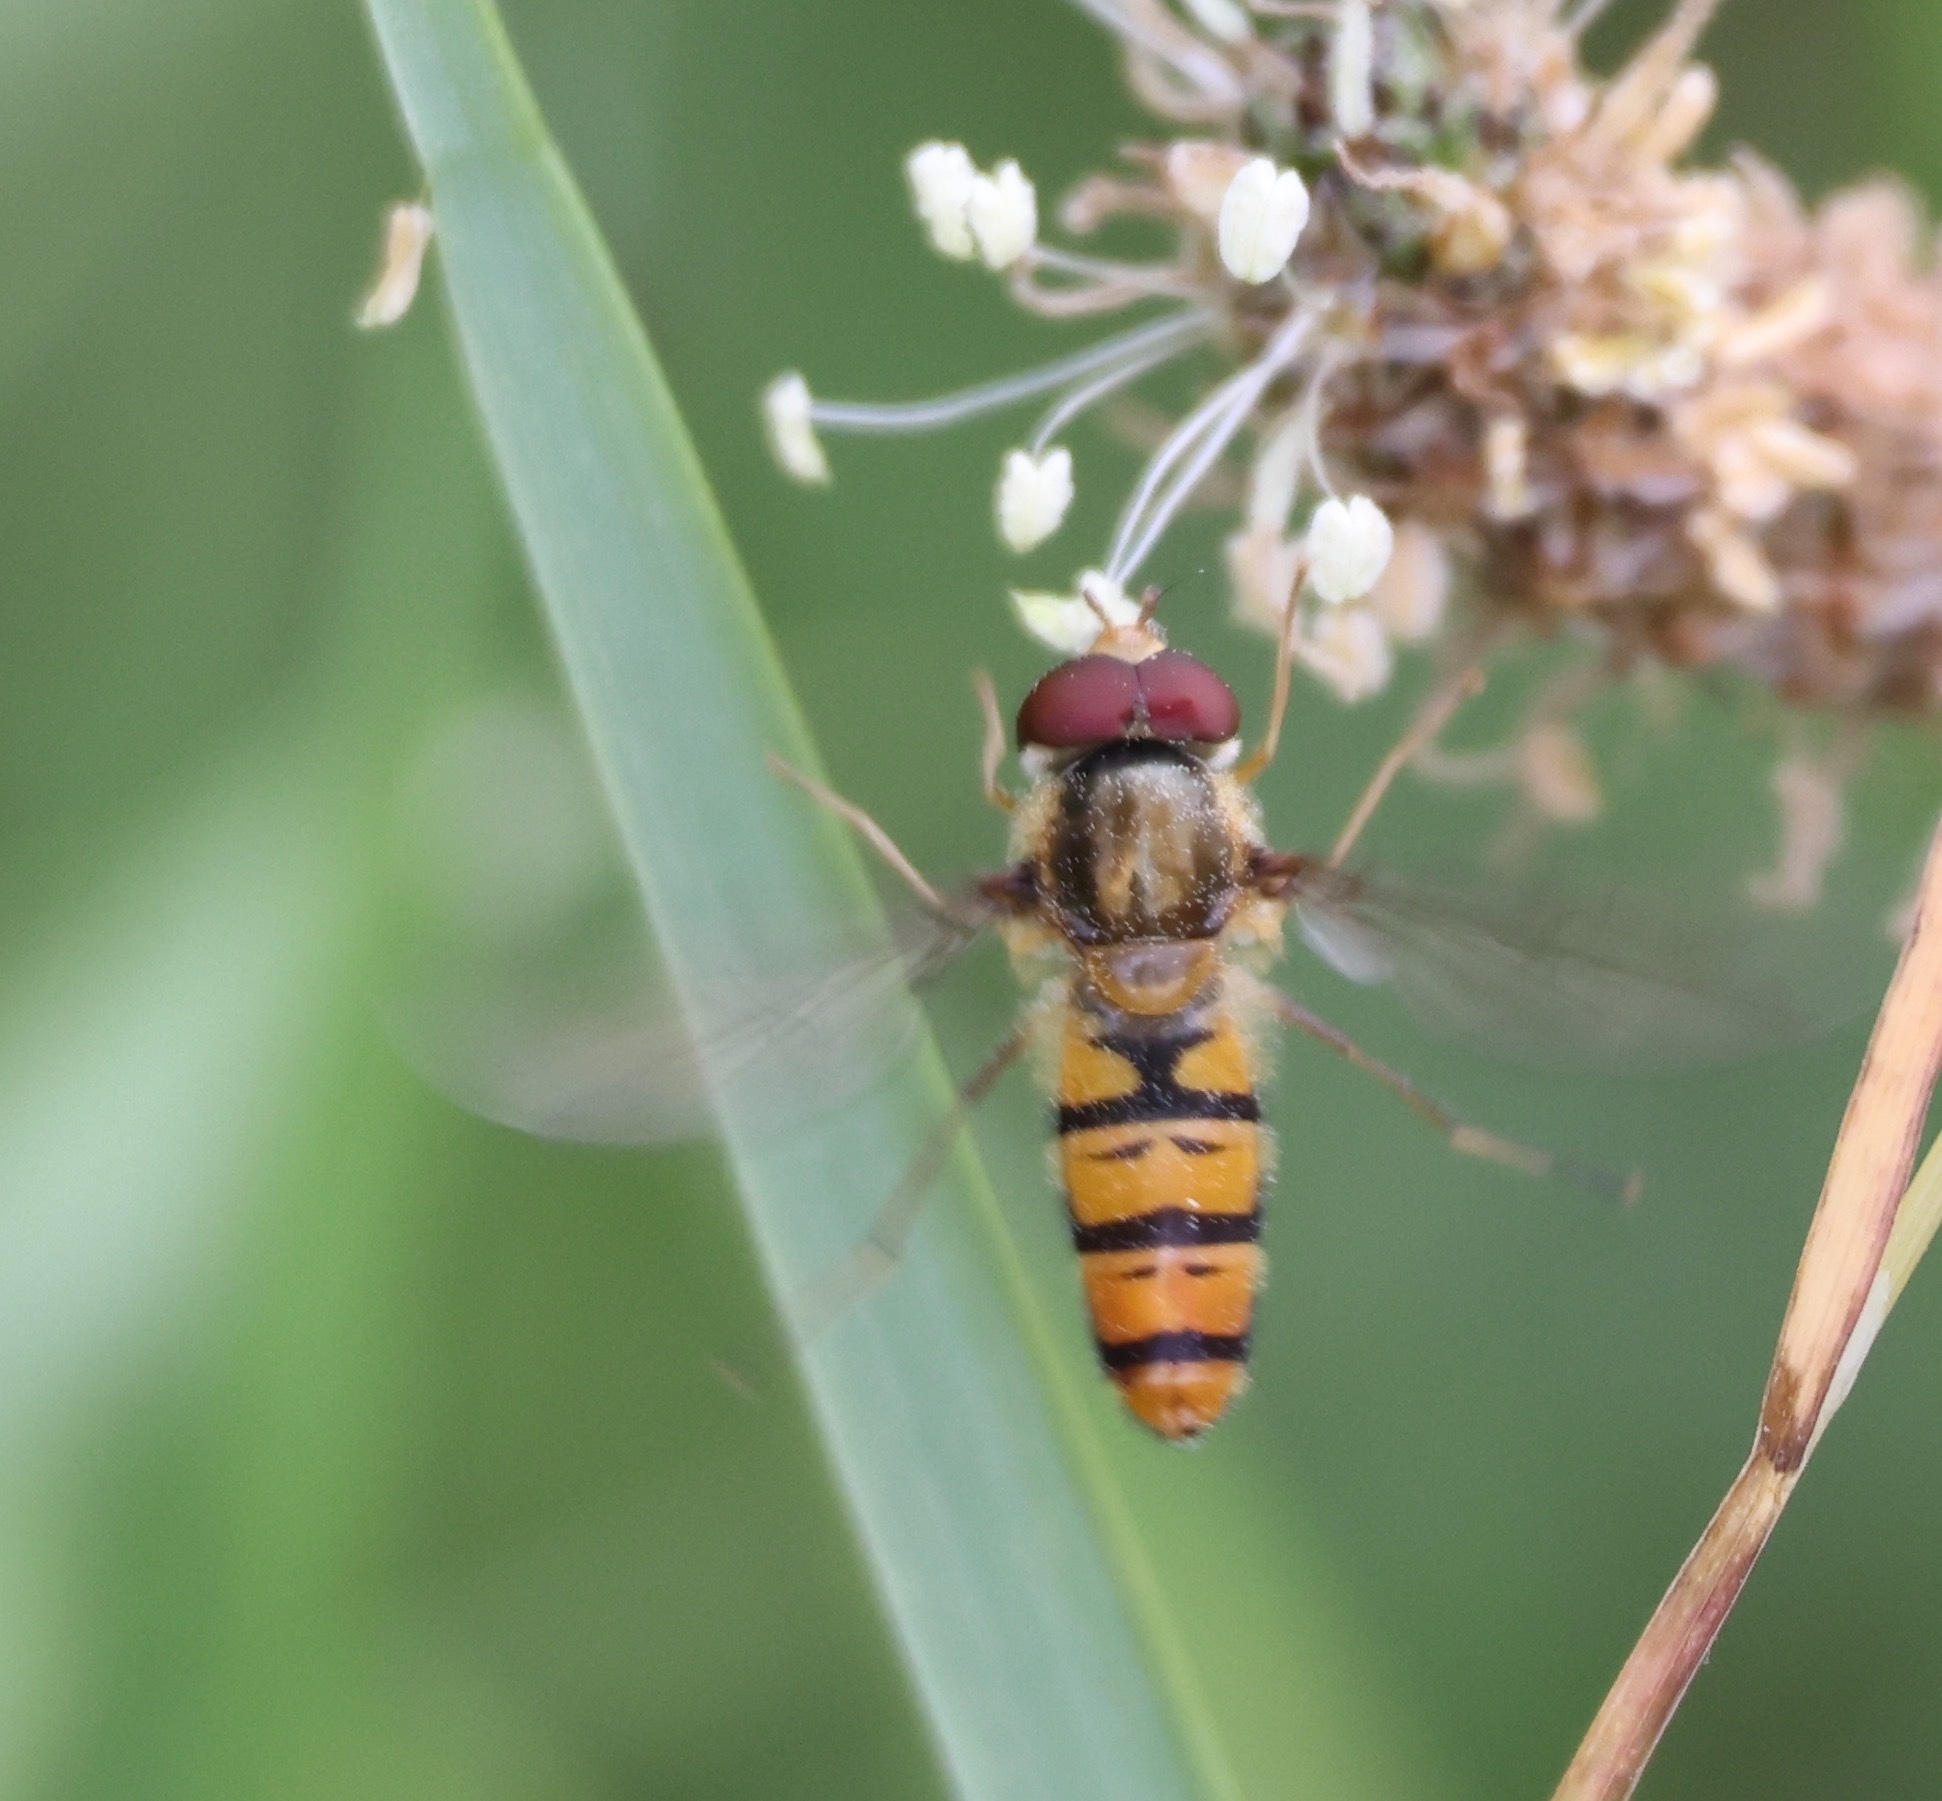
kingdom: Animalia
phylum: Arthropoda
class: Insecta
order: Diptera
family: Syrphidae
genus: Episyrphus
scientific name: Episyrphus balteatus
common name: Marmalade hoverfly
